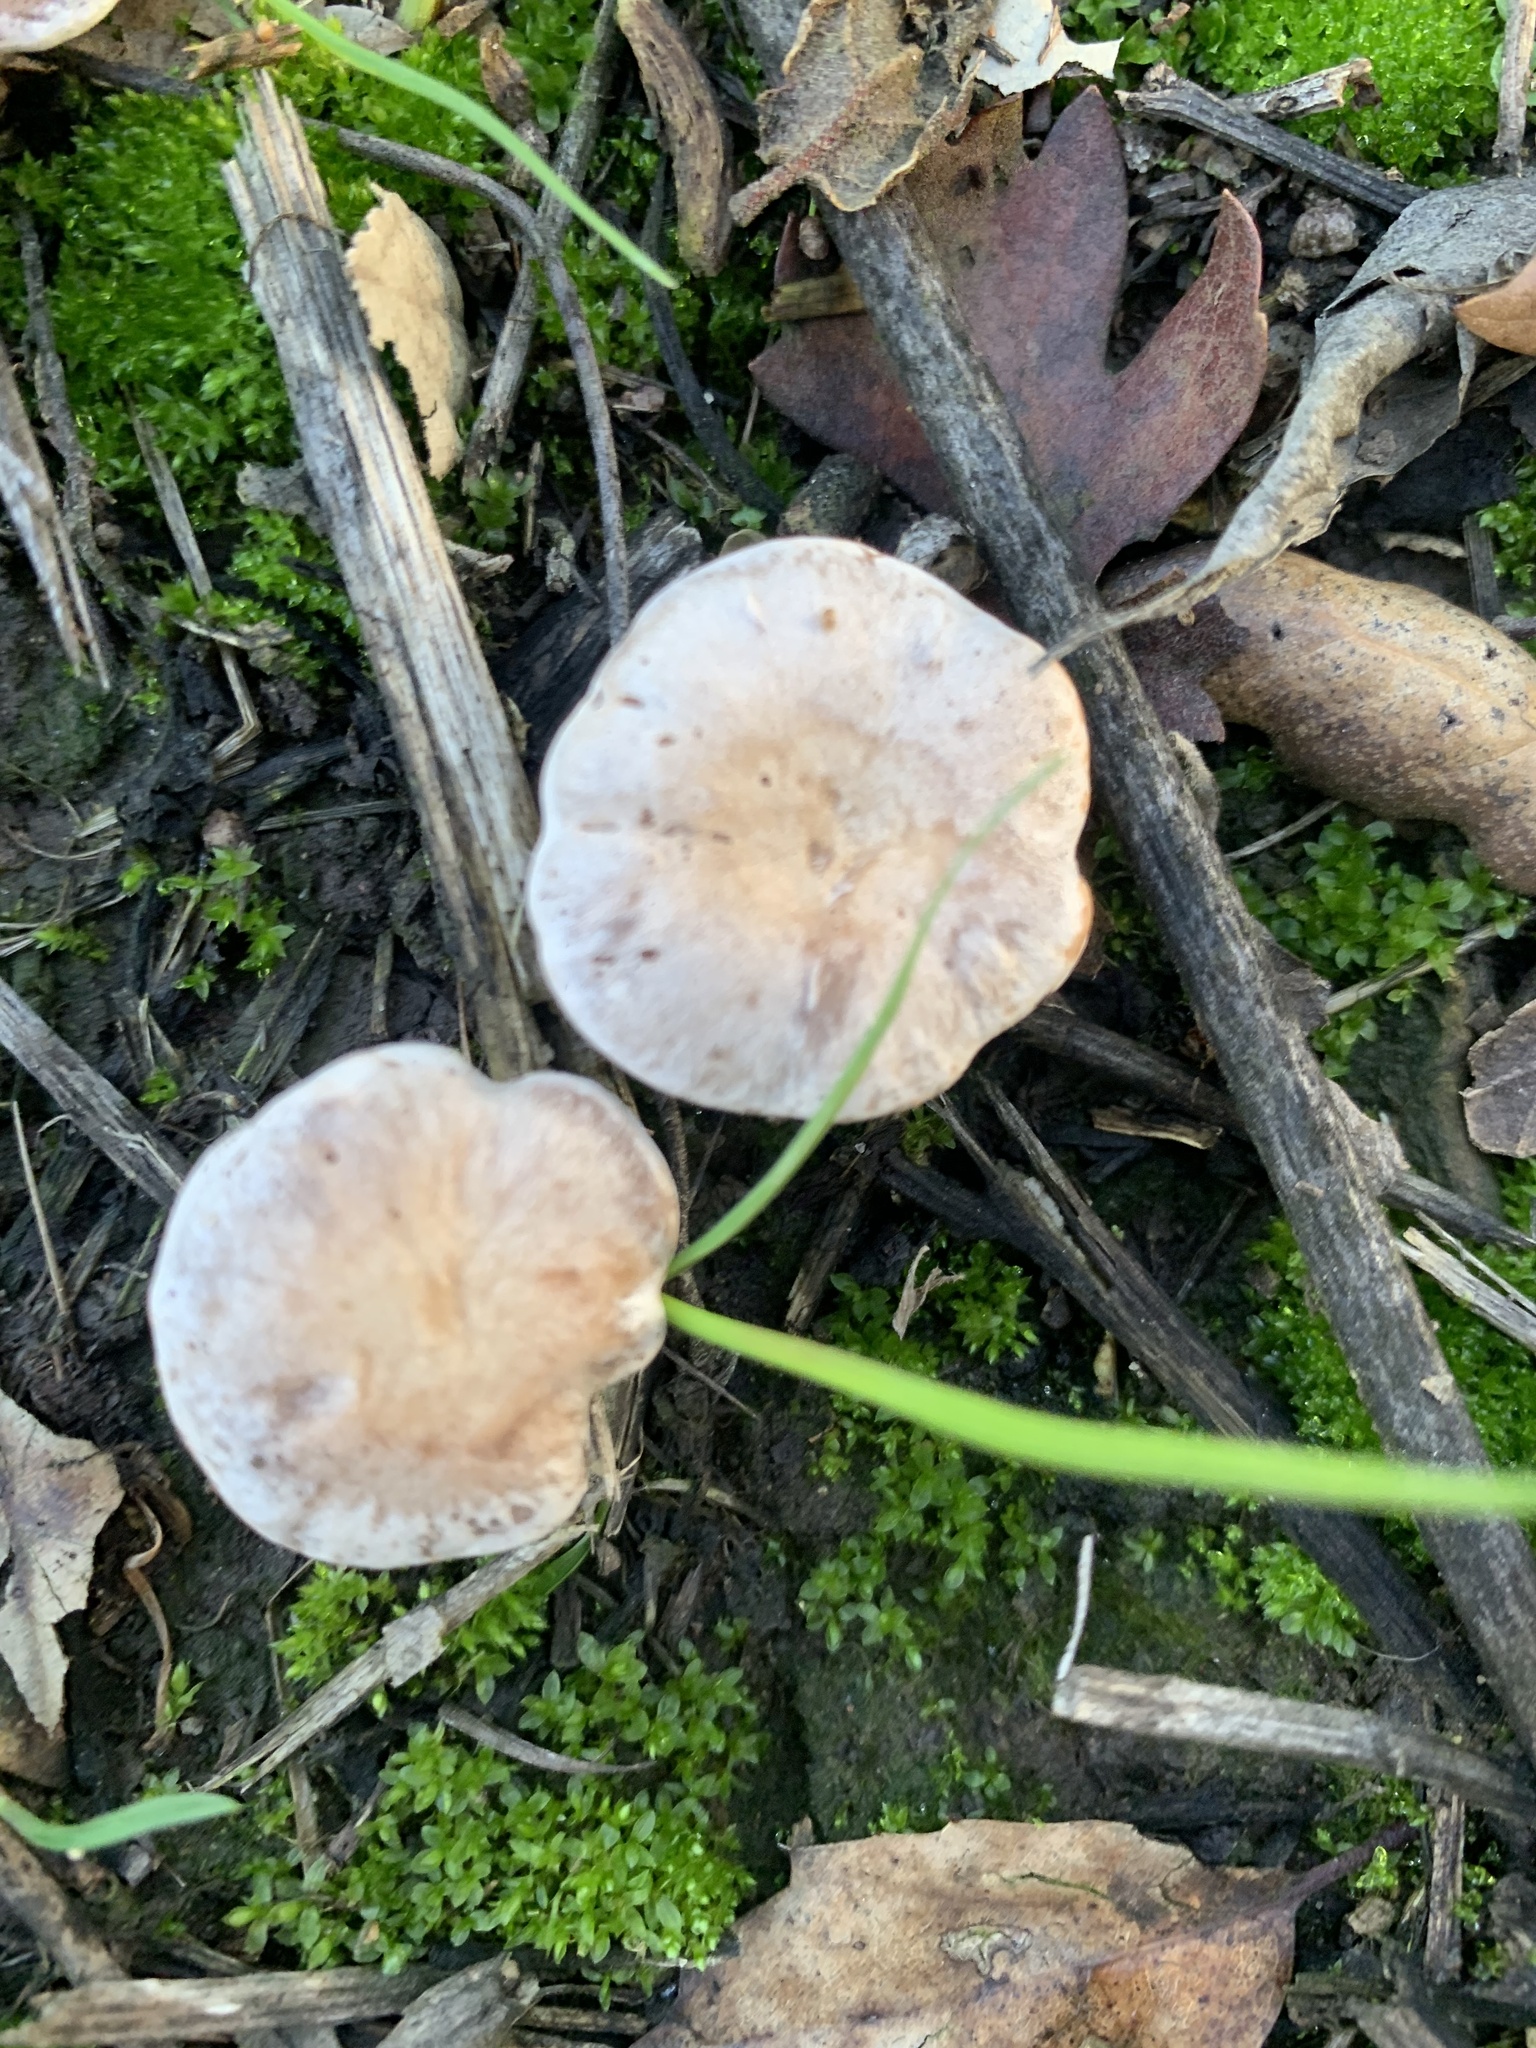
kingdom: Fungi
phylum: Basidiomycota
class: Agaricomycetes
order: Agaricales
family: Tricholomataceae
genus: Collybia
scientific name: Collybia
